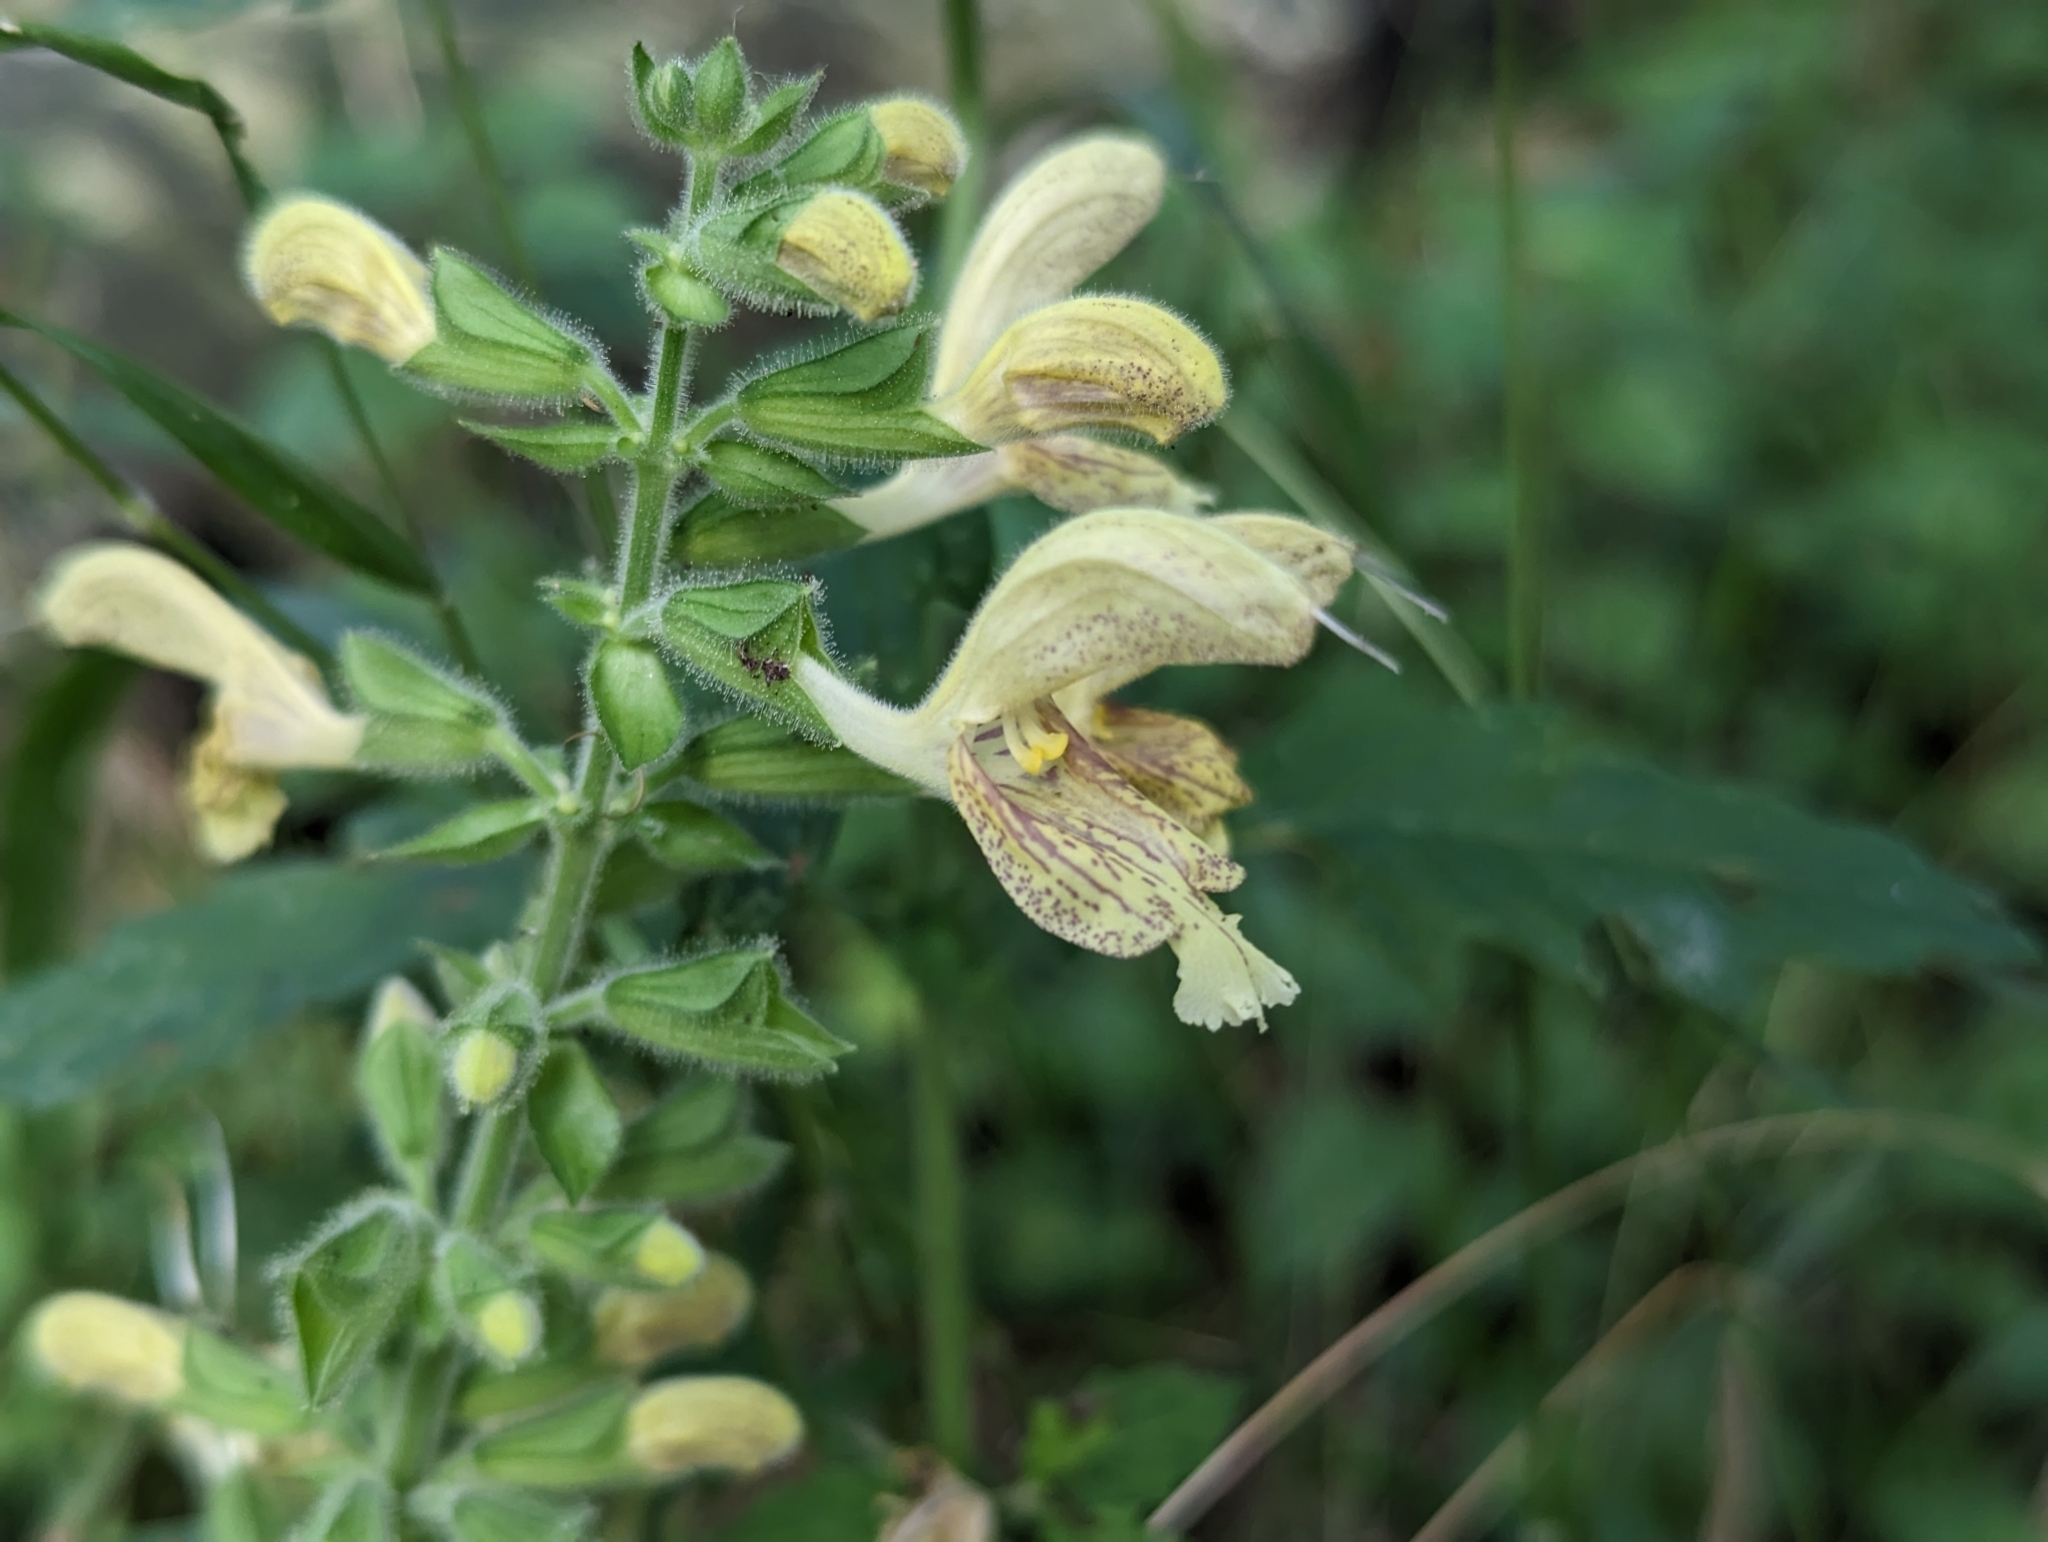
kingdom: Plantae
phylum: Tracheophyta
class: Magnoliopsida
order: Lamiales
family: Lamiaceae
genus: Salvia
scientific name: Salvia glutinosa
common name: Sticky clary
